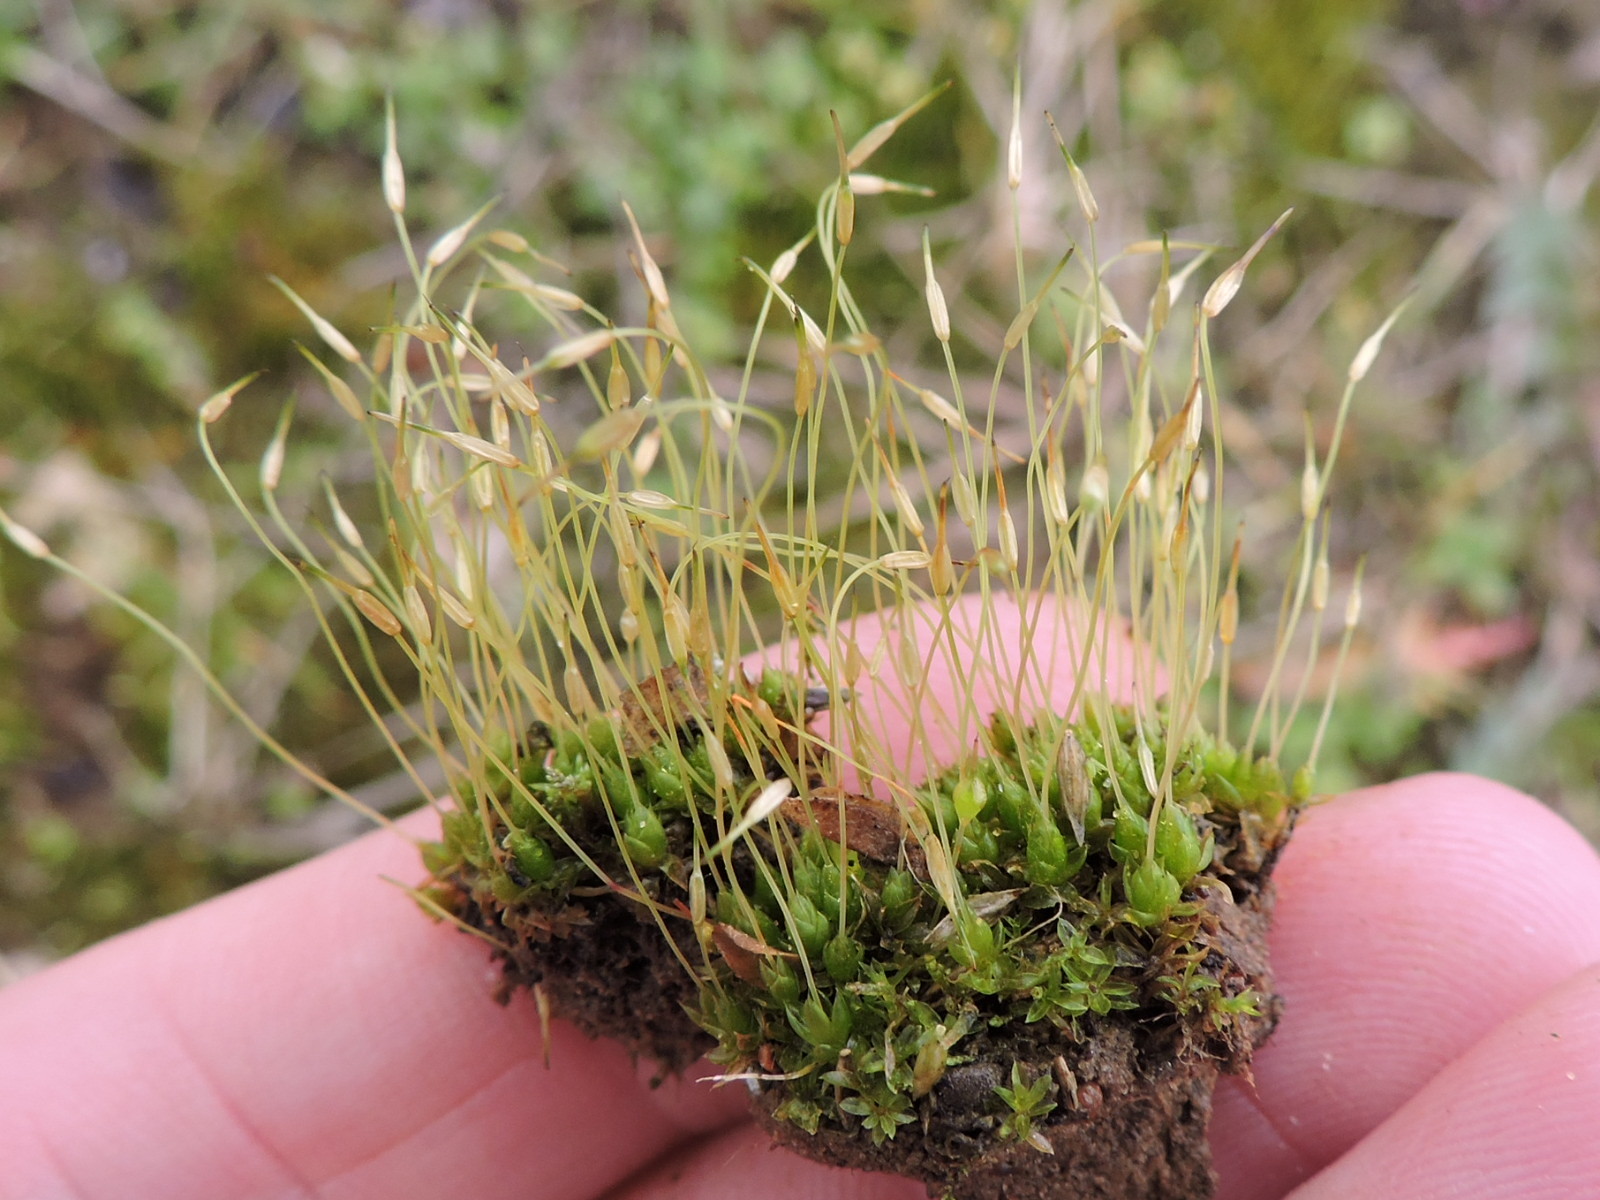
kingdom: Plantae
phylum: Bryophyta
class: Bryopsida
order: Funariales
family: Funariaceae
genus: Funaria
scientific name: Funaria hygrometrica
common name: Common cord moss
